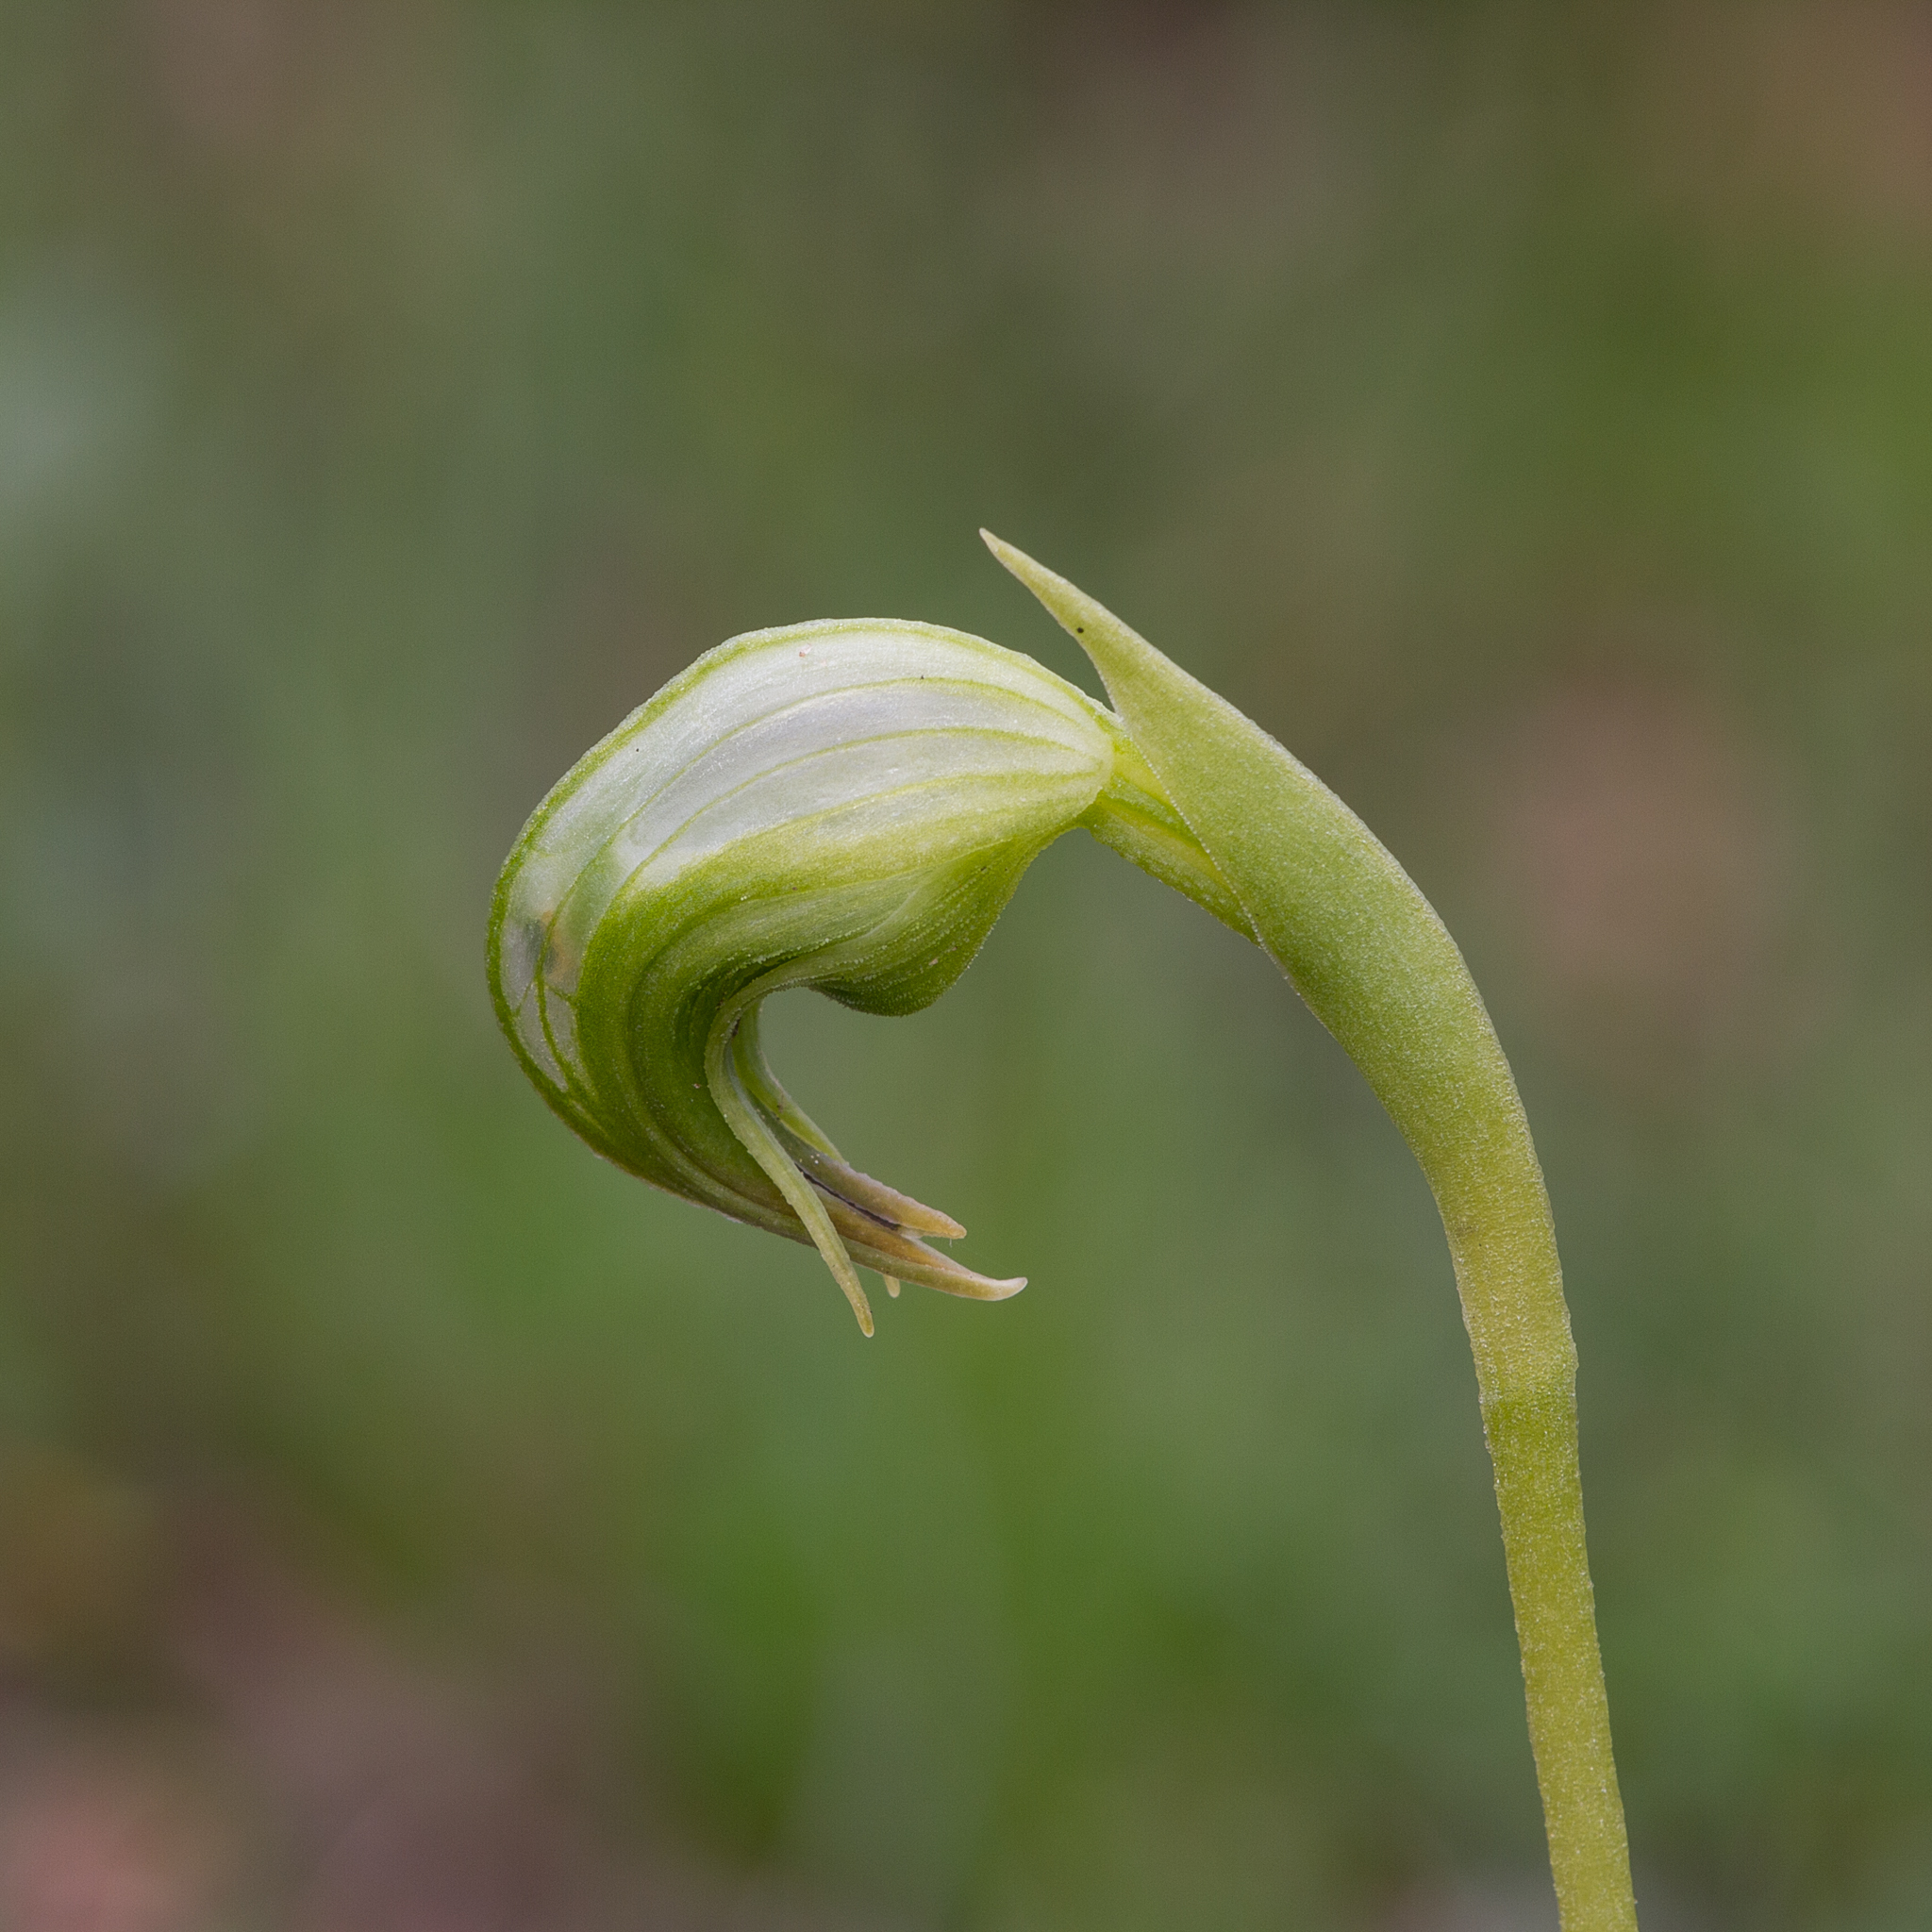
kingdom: Plantae
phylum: Tracheophyta
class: Liliopsida
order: Asparagales
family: Orchidaceae
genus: Pterostylis
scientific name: Pterostylis nutans
